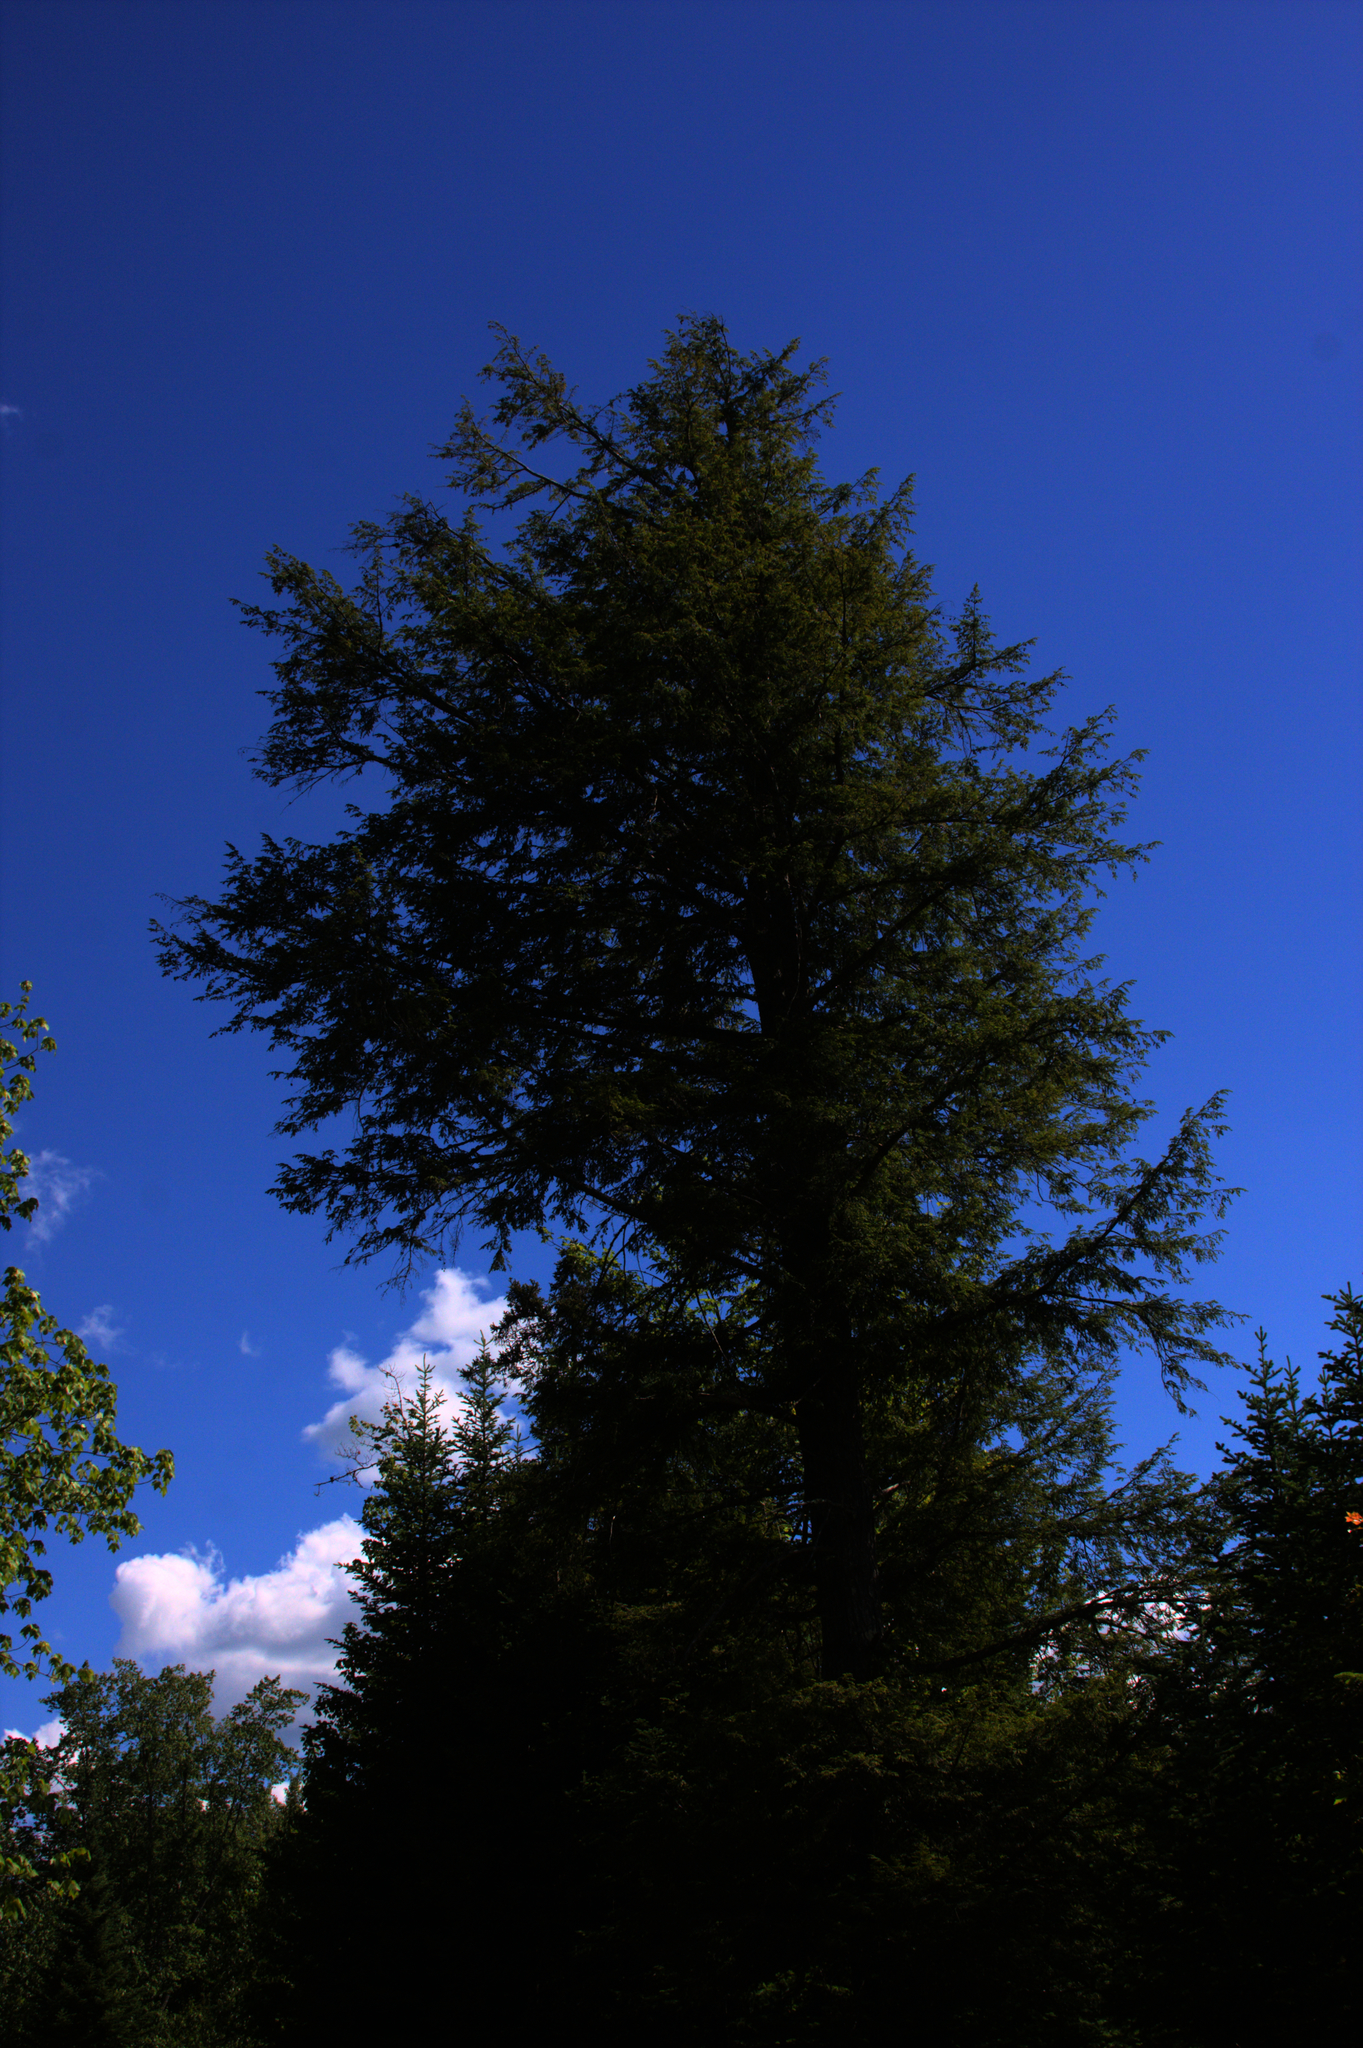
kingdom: Plantae
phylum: Tracheophyta
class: Pinopsida
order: Pinales
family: Pinaceae
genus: Tsuga
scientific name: Tsuga canadensis
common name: Eastern hemlock
